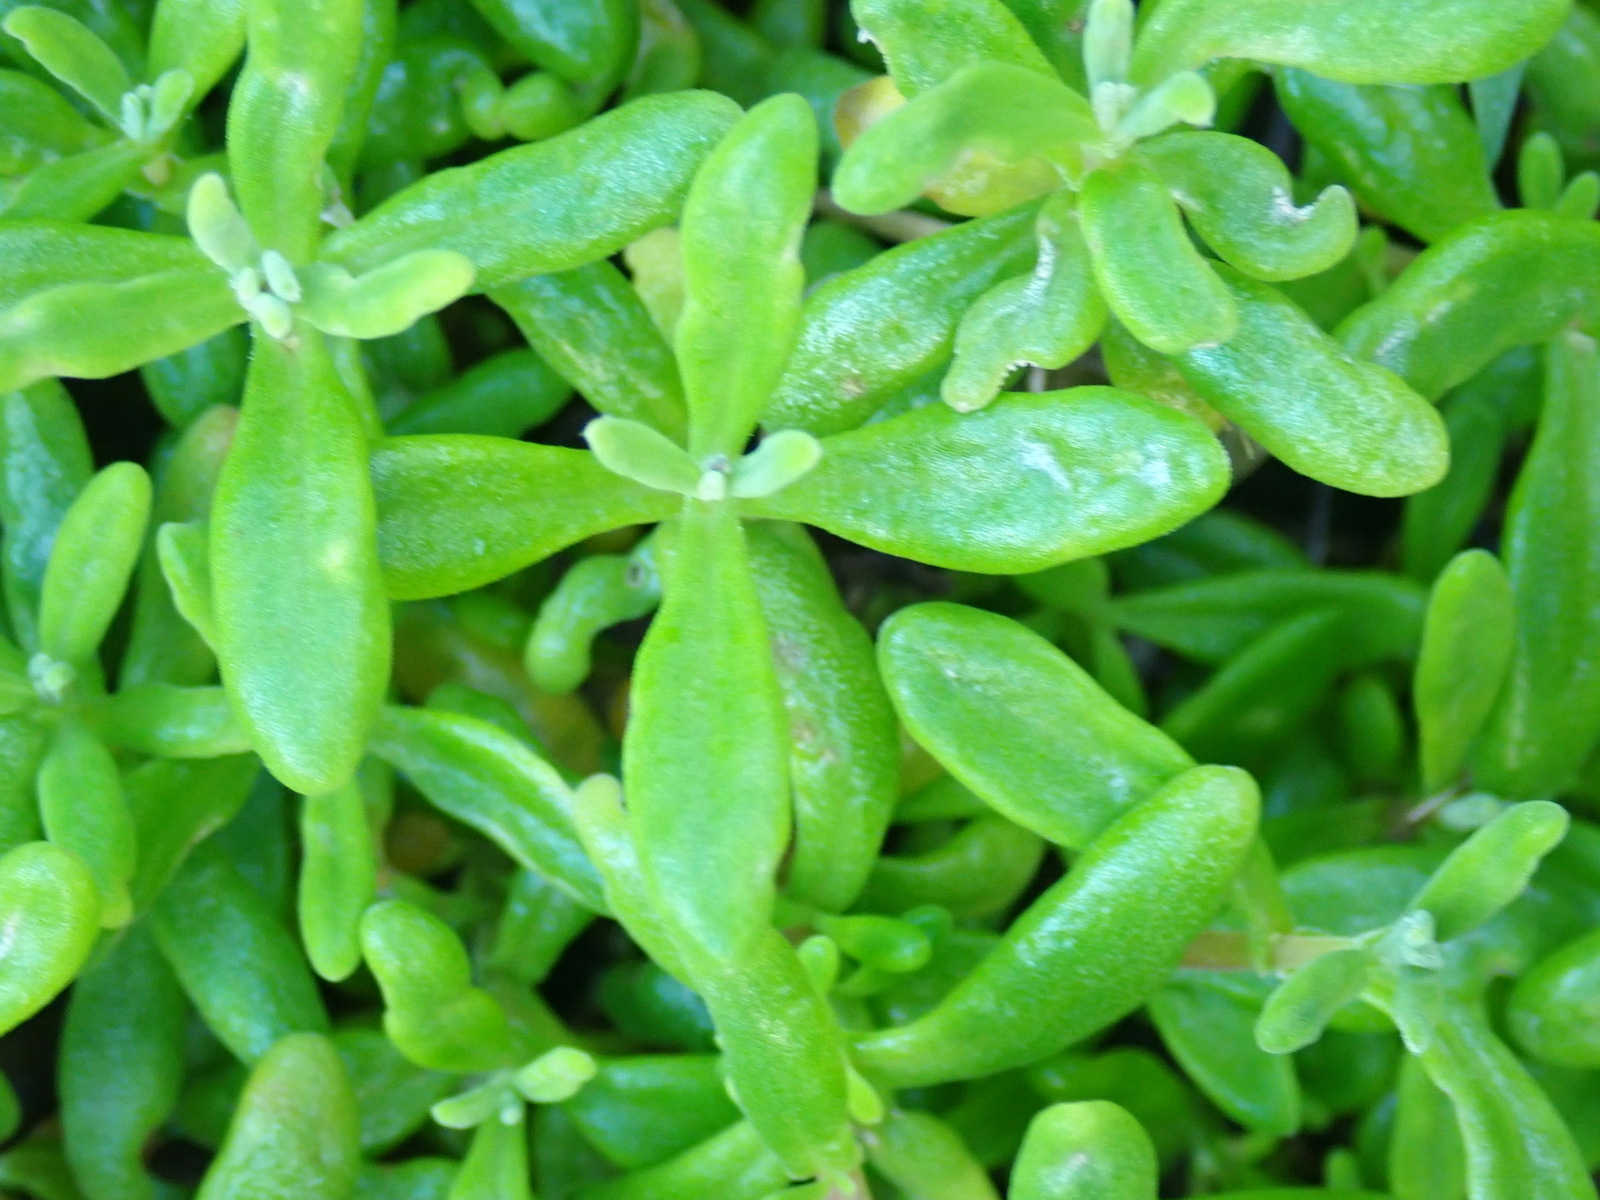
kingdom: Plantae
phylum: Tracheophyta
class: Magnoliopsida
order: Caryophyllales
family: Aizoaceae
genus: Tetragonia
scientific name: Tetragonia fruticosa
